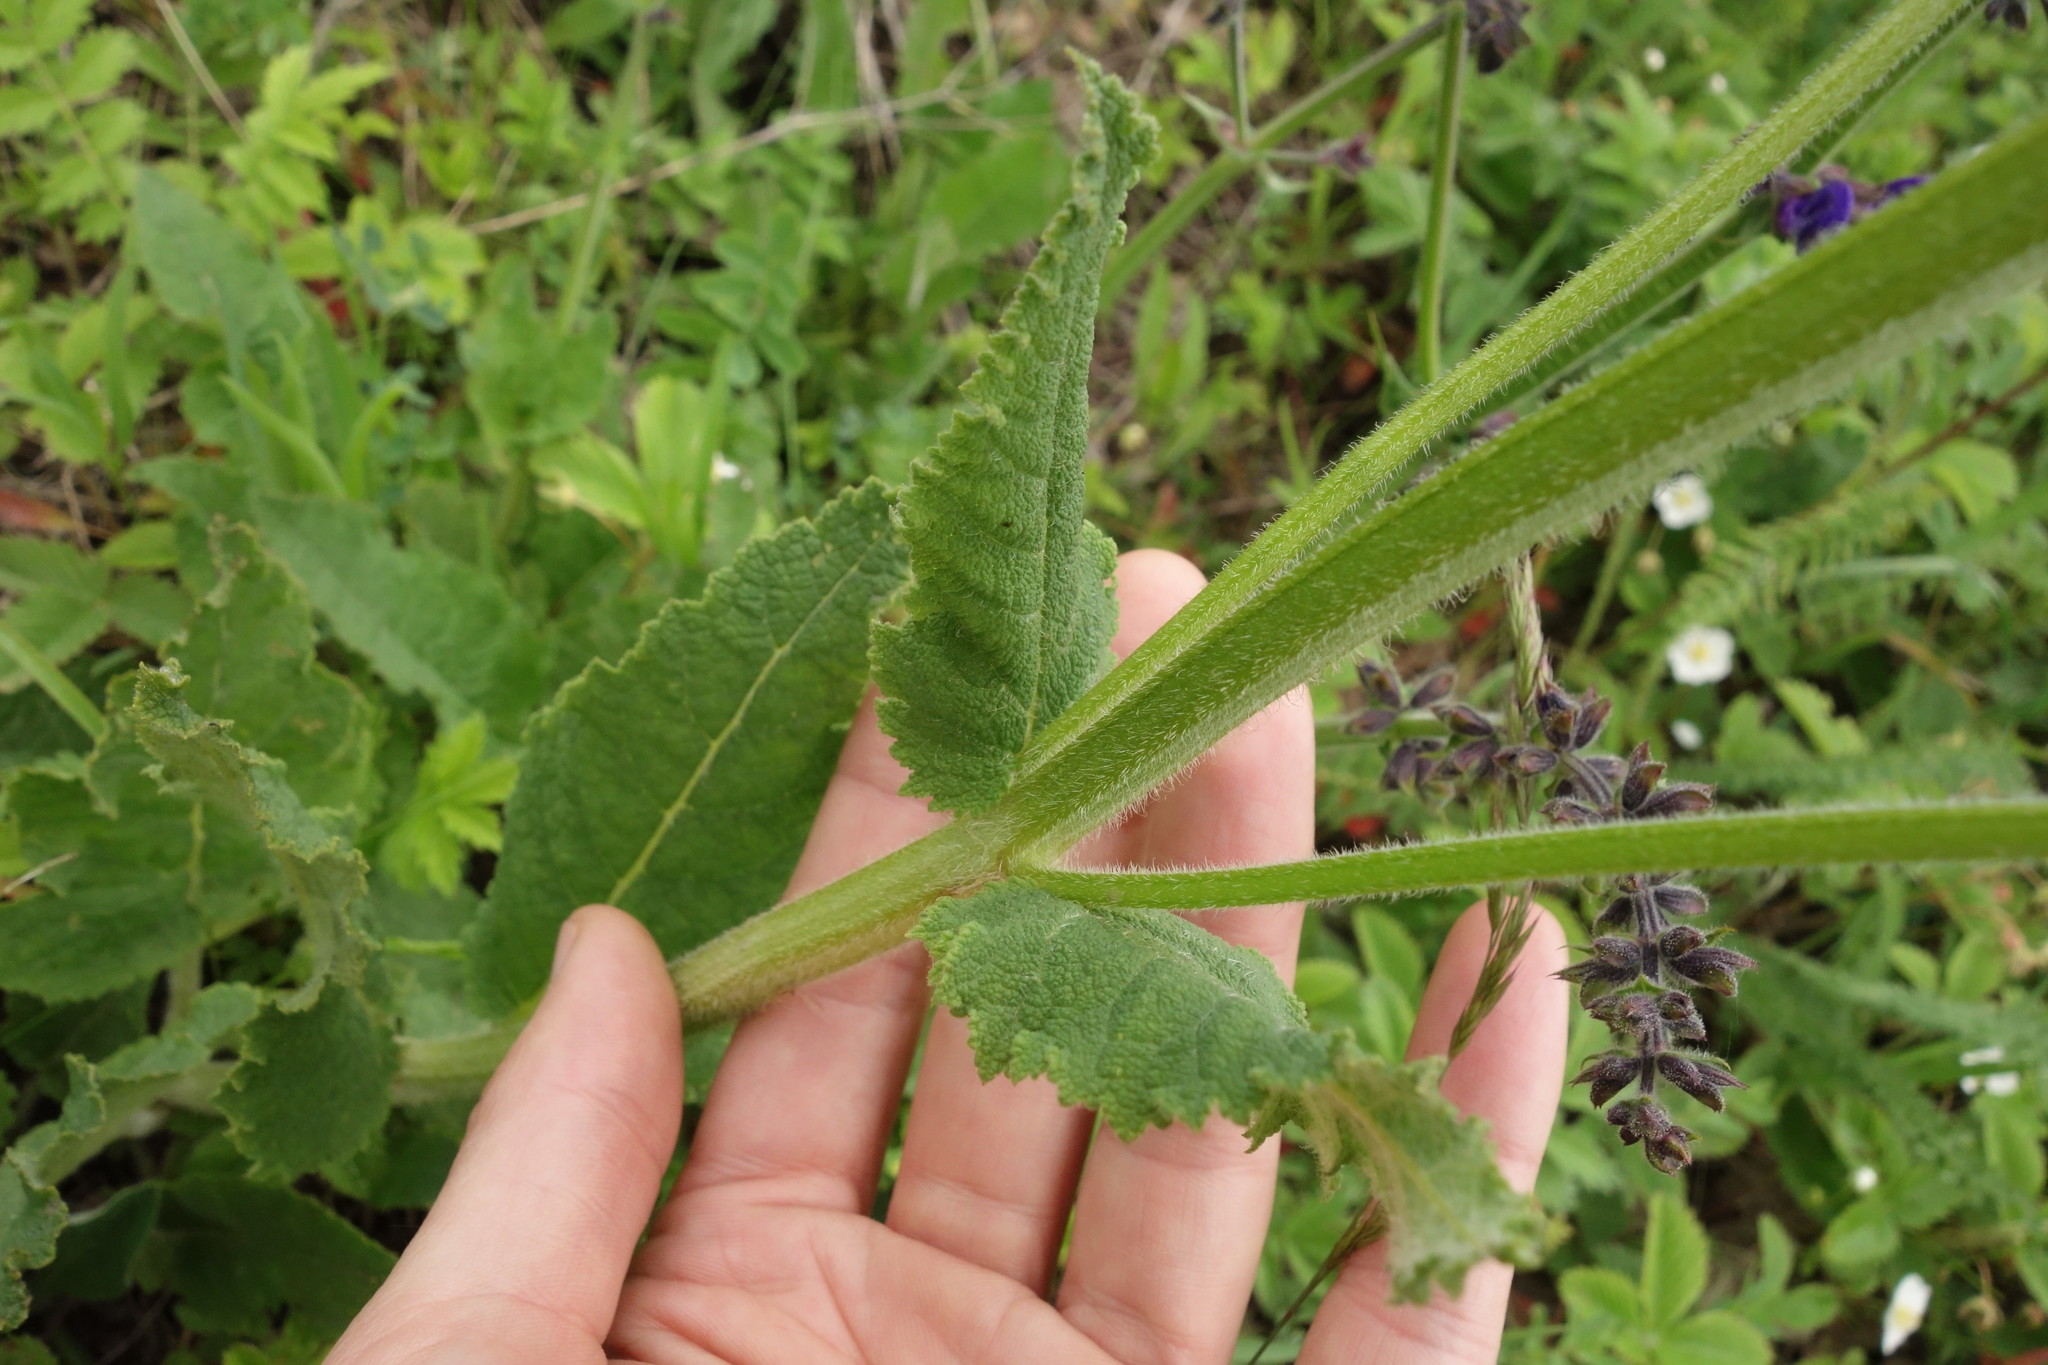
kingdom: Plantae
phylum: Tracheophyta
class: Magnoliopsida
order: Lamiales
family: Lamiaceae
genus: Salvia
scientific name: Salvia pratensis
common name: Meadow sage
